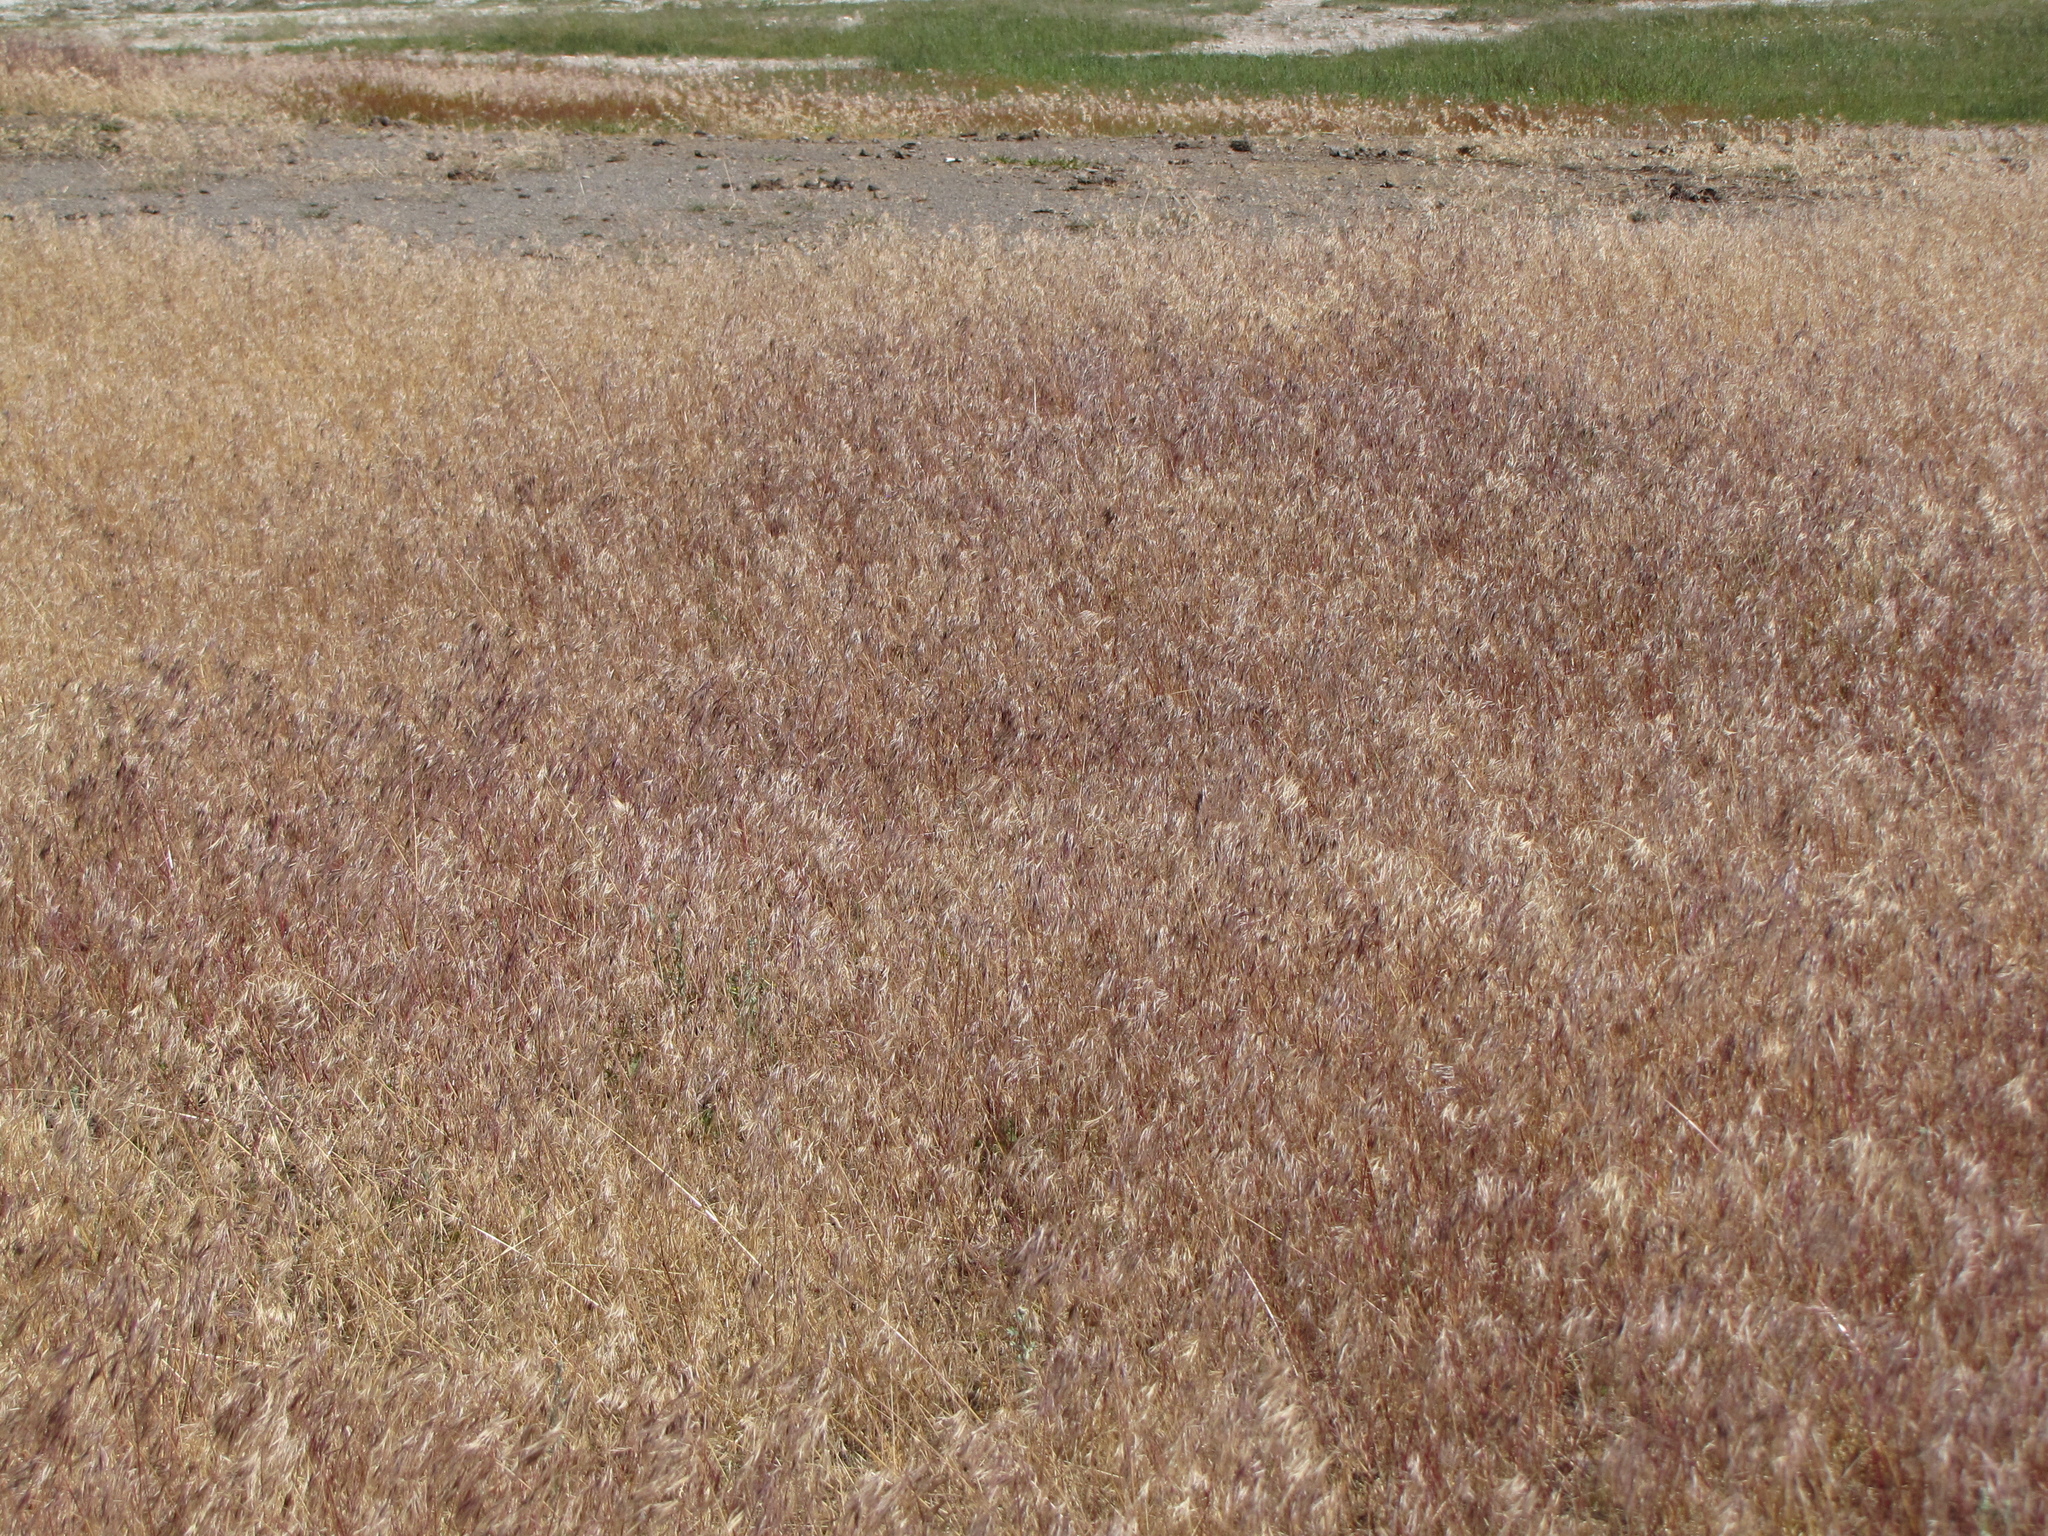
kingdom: Plantae
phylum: Tracheophyta
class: Liliopsida
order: Poales
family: Poaceae
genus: Bromus
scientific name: Bromus tectorum
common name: Cheatgrass
